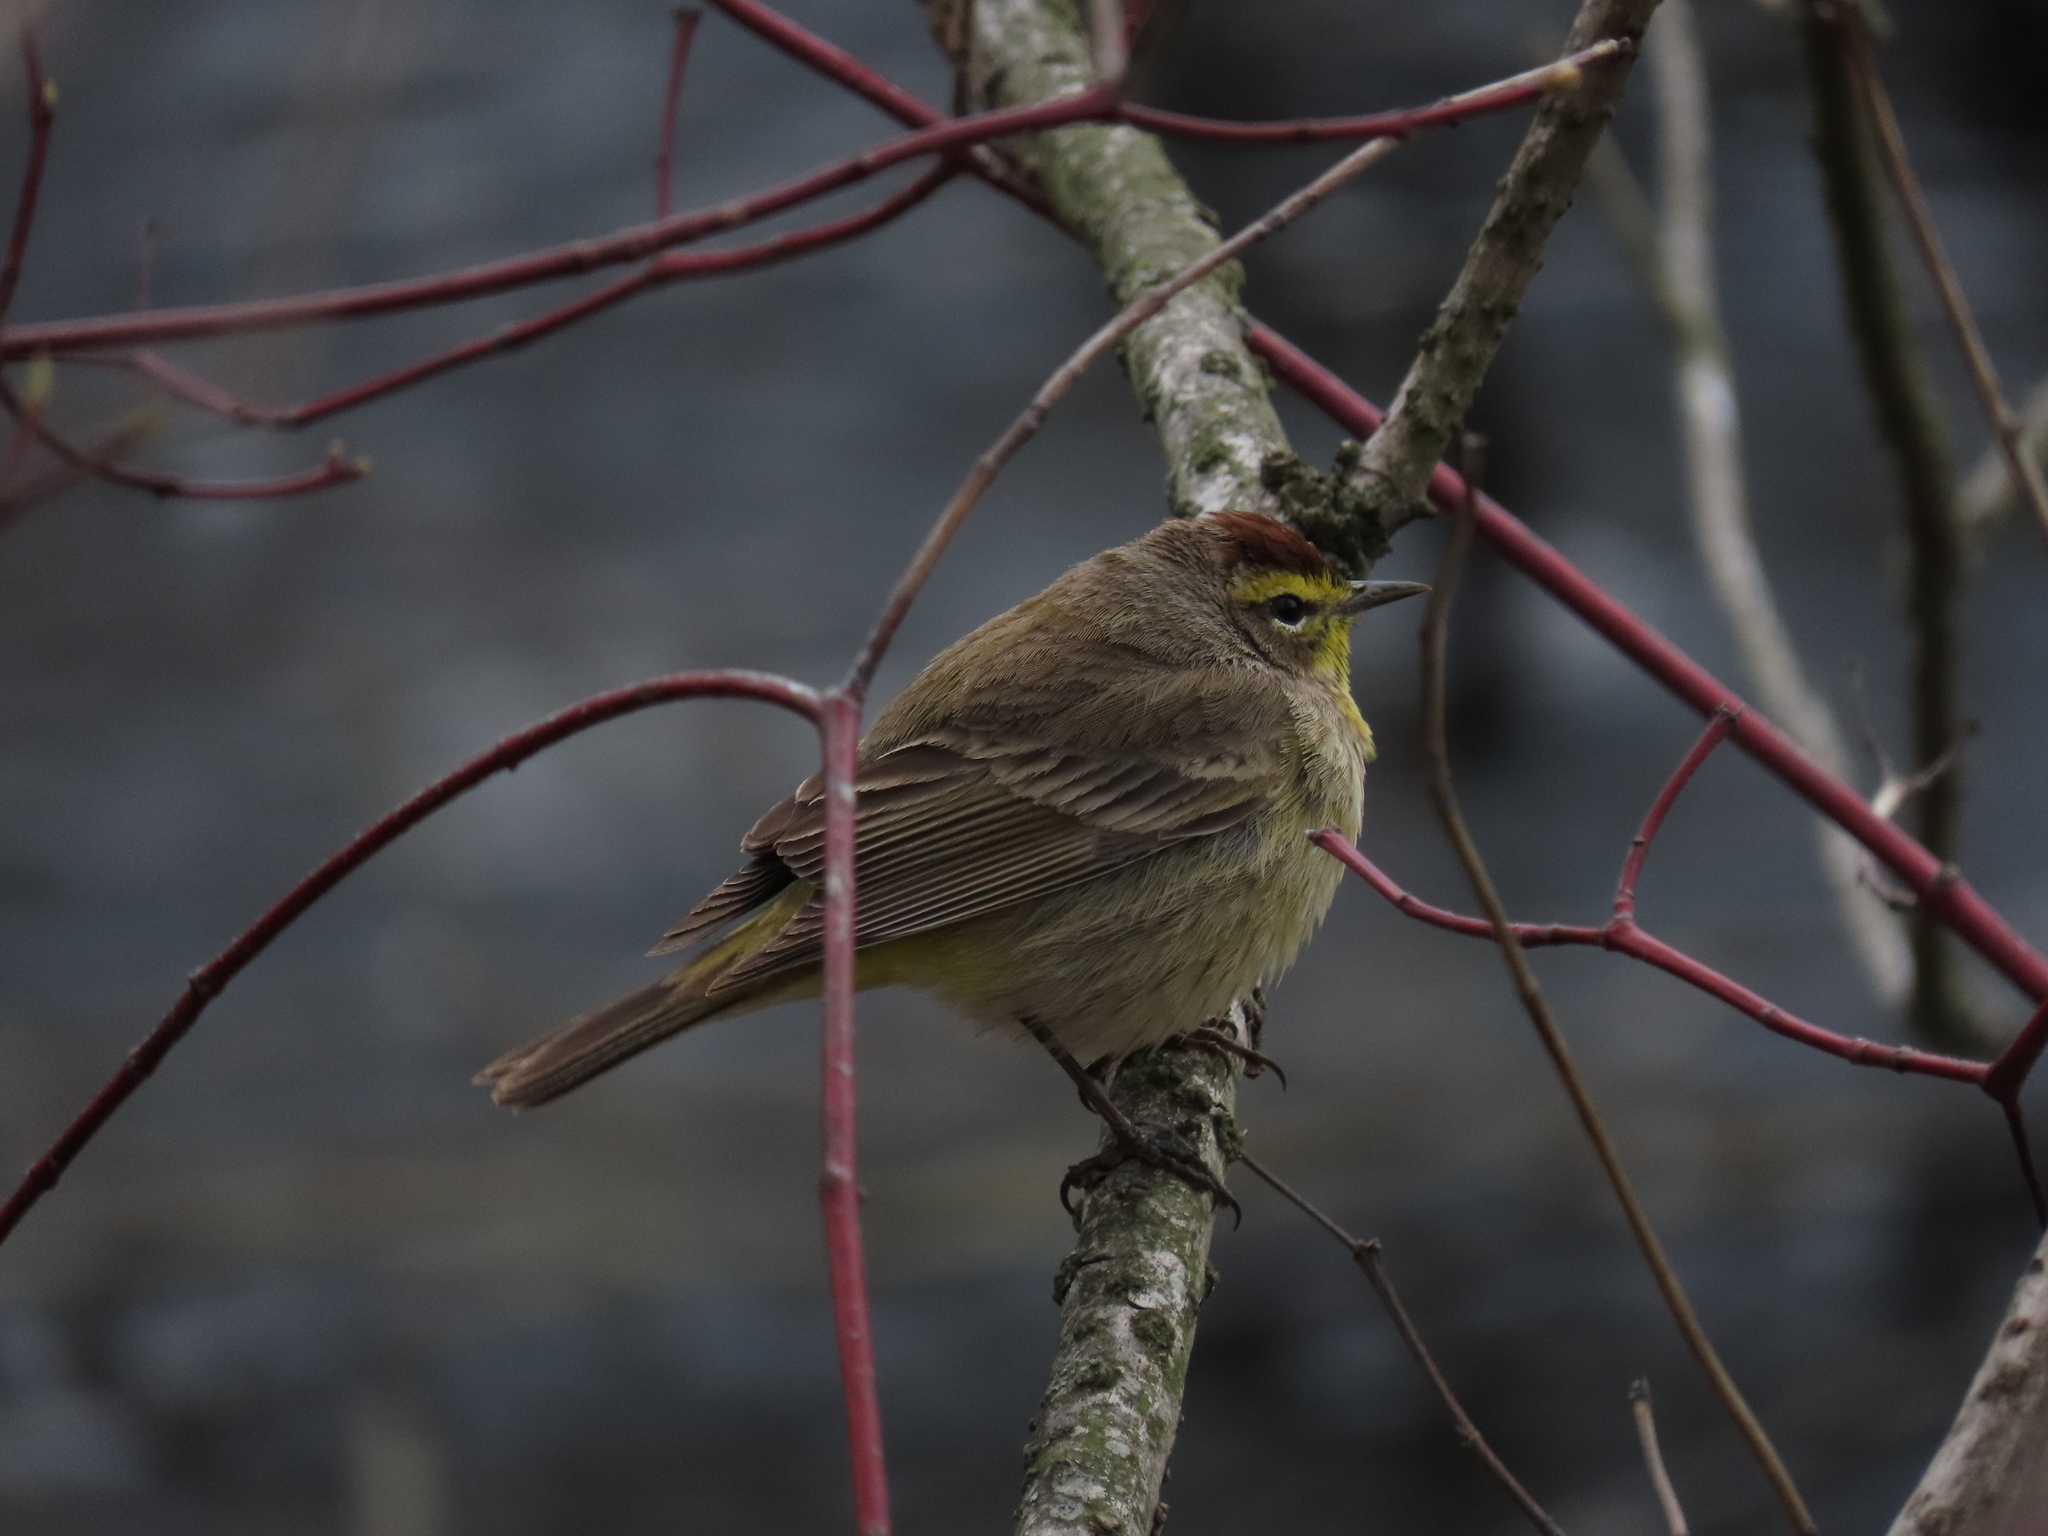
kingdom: Animalia
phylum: Chordata
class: Aves
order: Passeriformes
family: Parulidae
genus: Setophaga
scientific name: Setophaga palmarum
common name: Palm warbler
